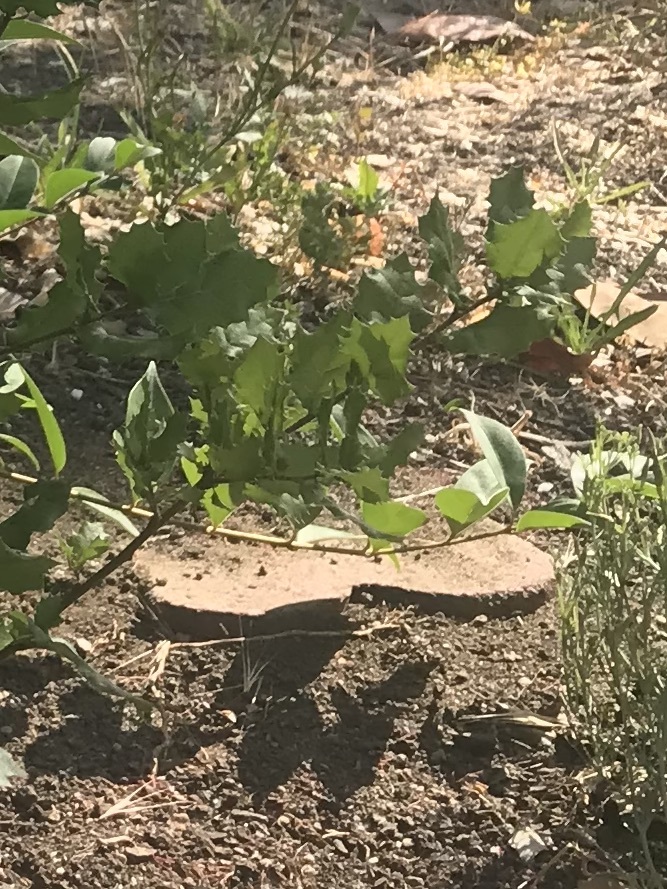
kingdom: Plantae
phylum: Tracheophyta
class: Magnoliopsida
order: Fagales
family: Fagaceae
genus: Quercus
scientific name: Quercus agrifolia
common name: California live oak
